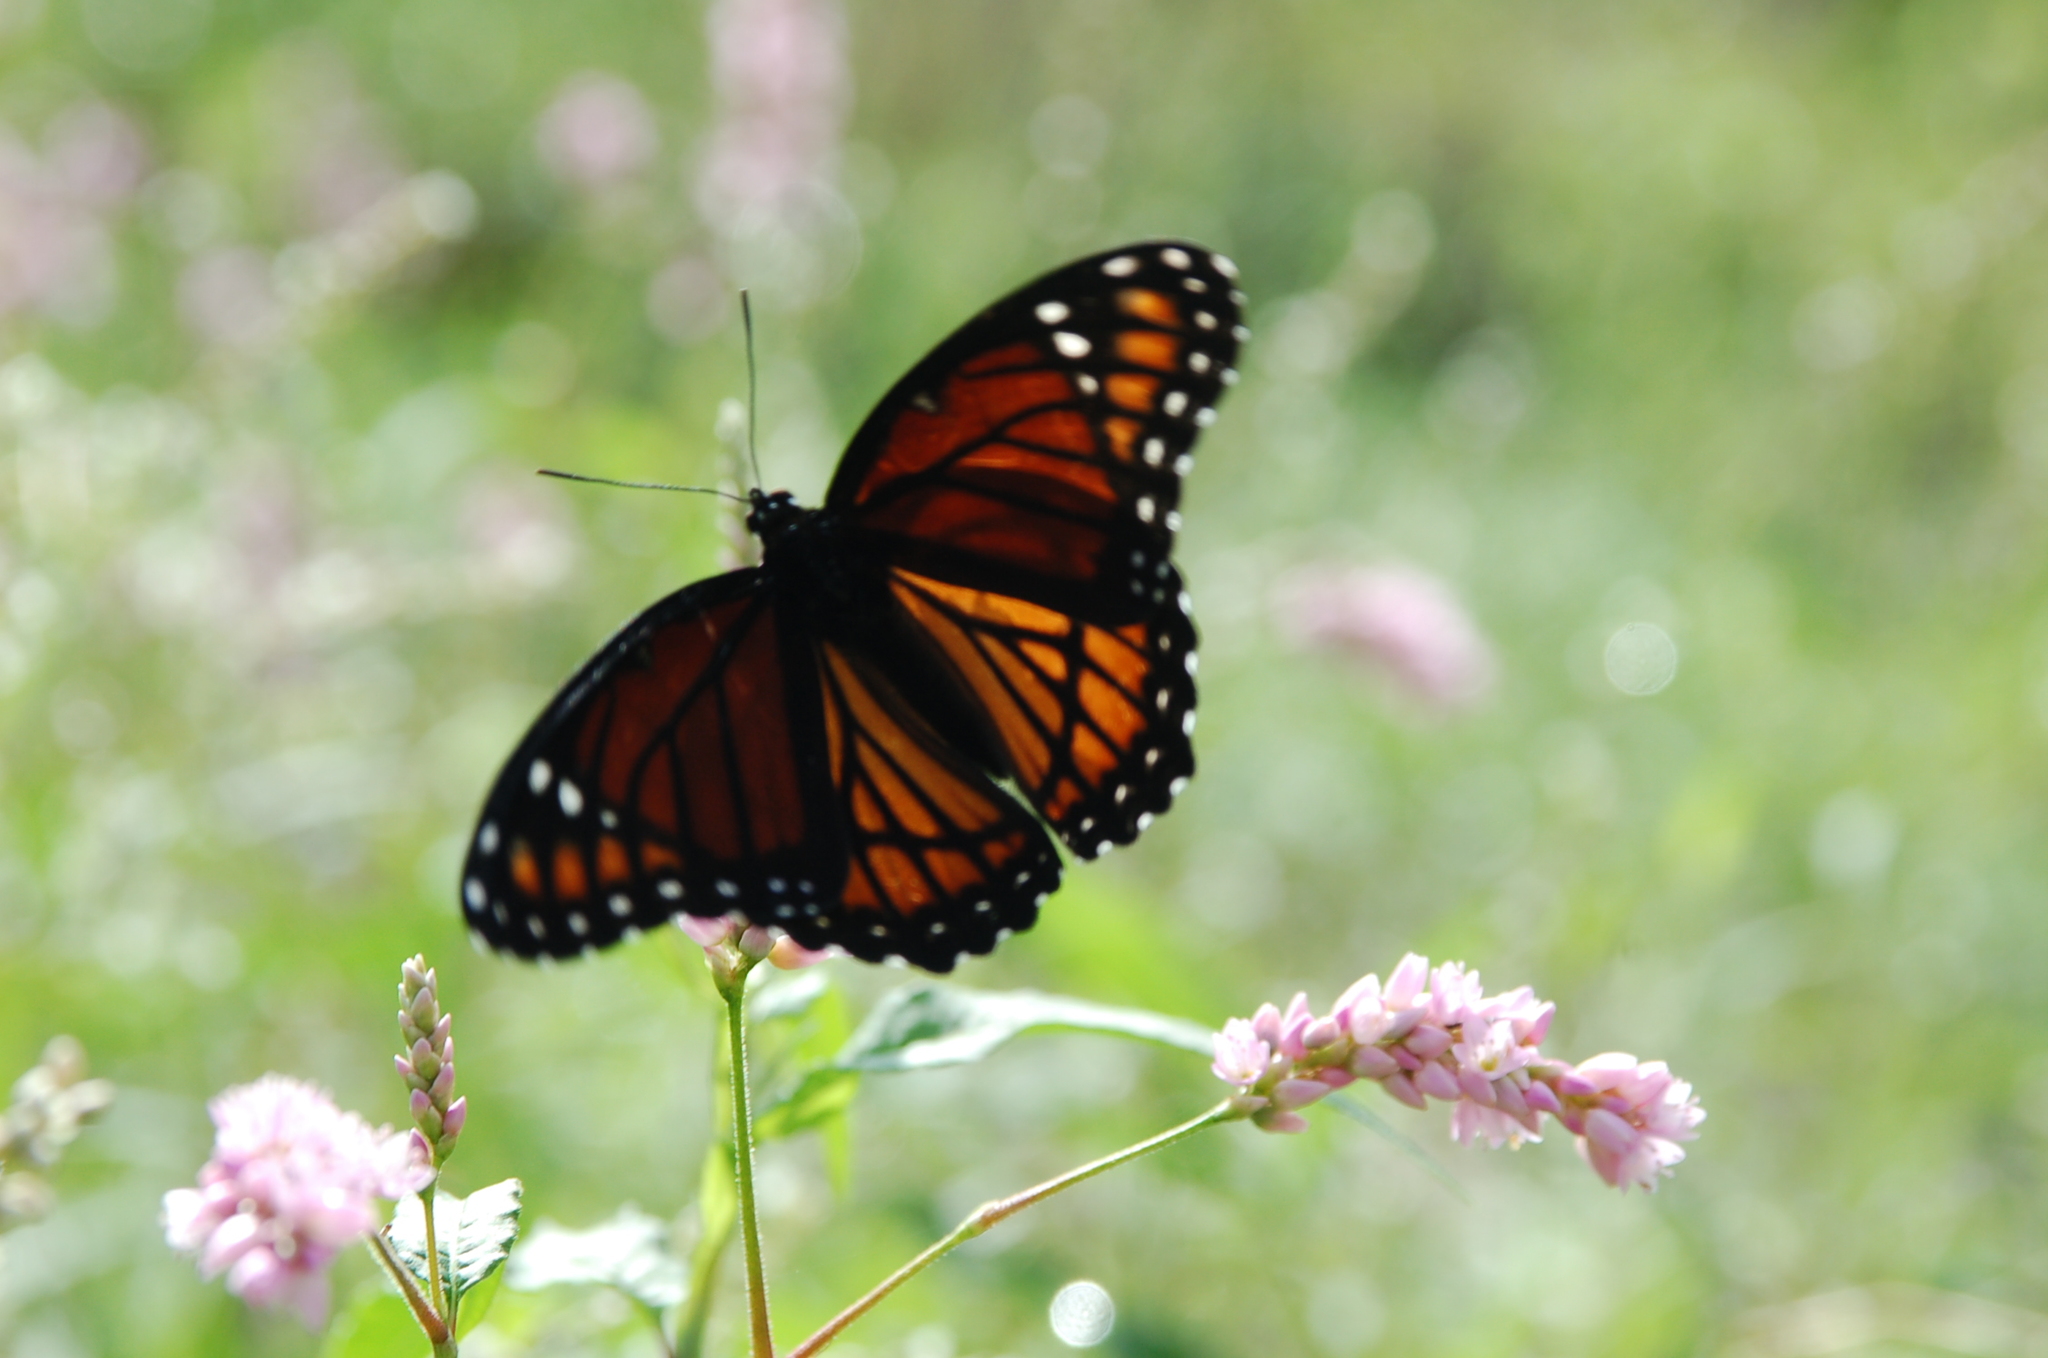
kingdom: Animalia
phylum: Arthropoda
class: Insecta
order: Lepidoptera
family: Nymphalidae
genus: Limenitis
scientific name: Limenitis archippus
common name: Viceroy
